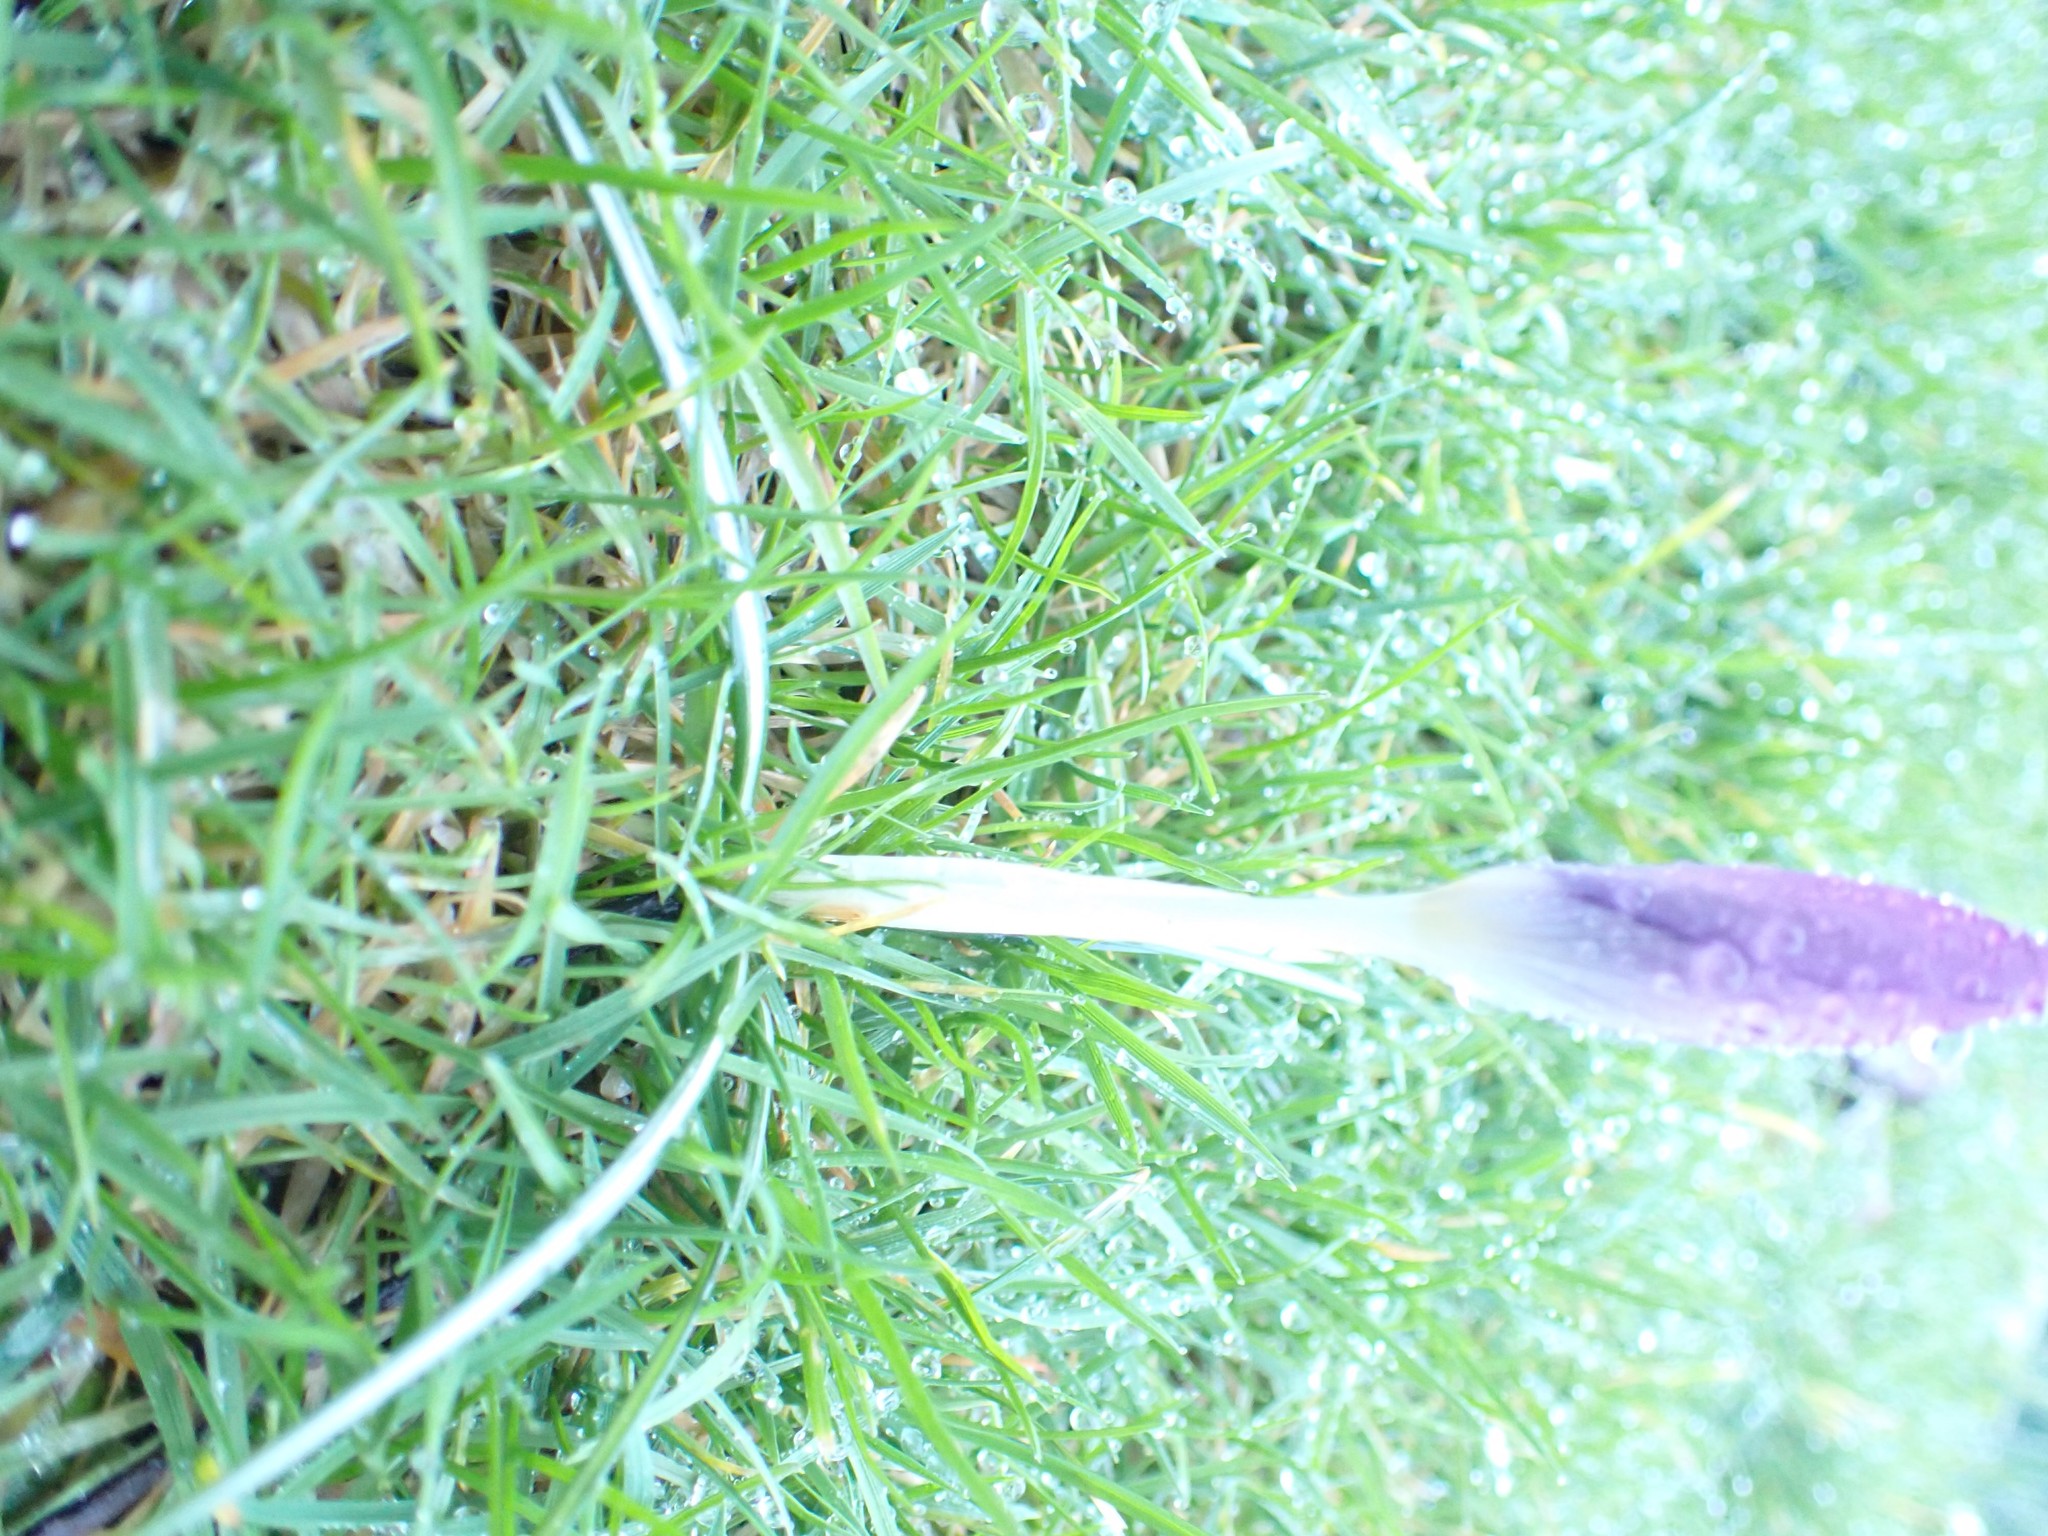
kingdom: Plantae
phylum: Tracheophyta
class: Liliopsida
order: Asparagales
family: Iridaceae
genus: Crocus
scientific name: Crocus tommasinianus
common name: Early crocus
